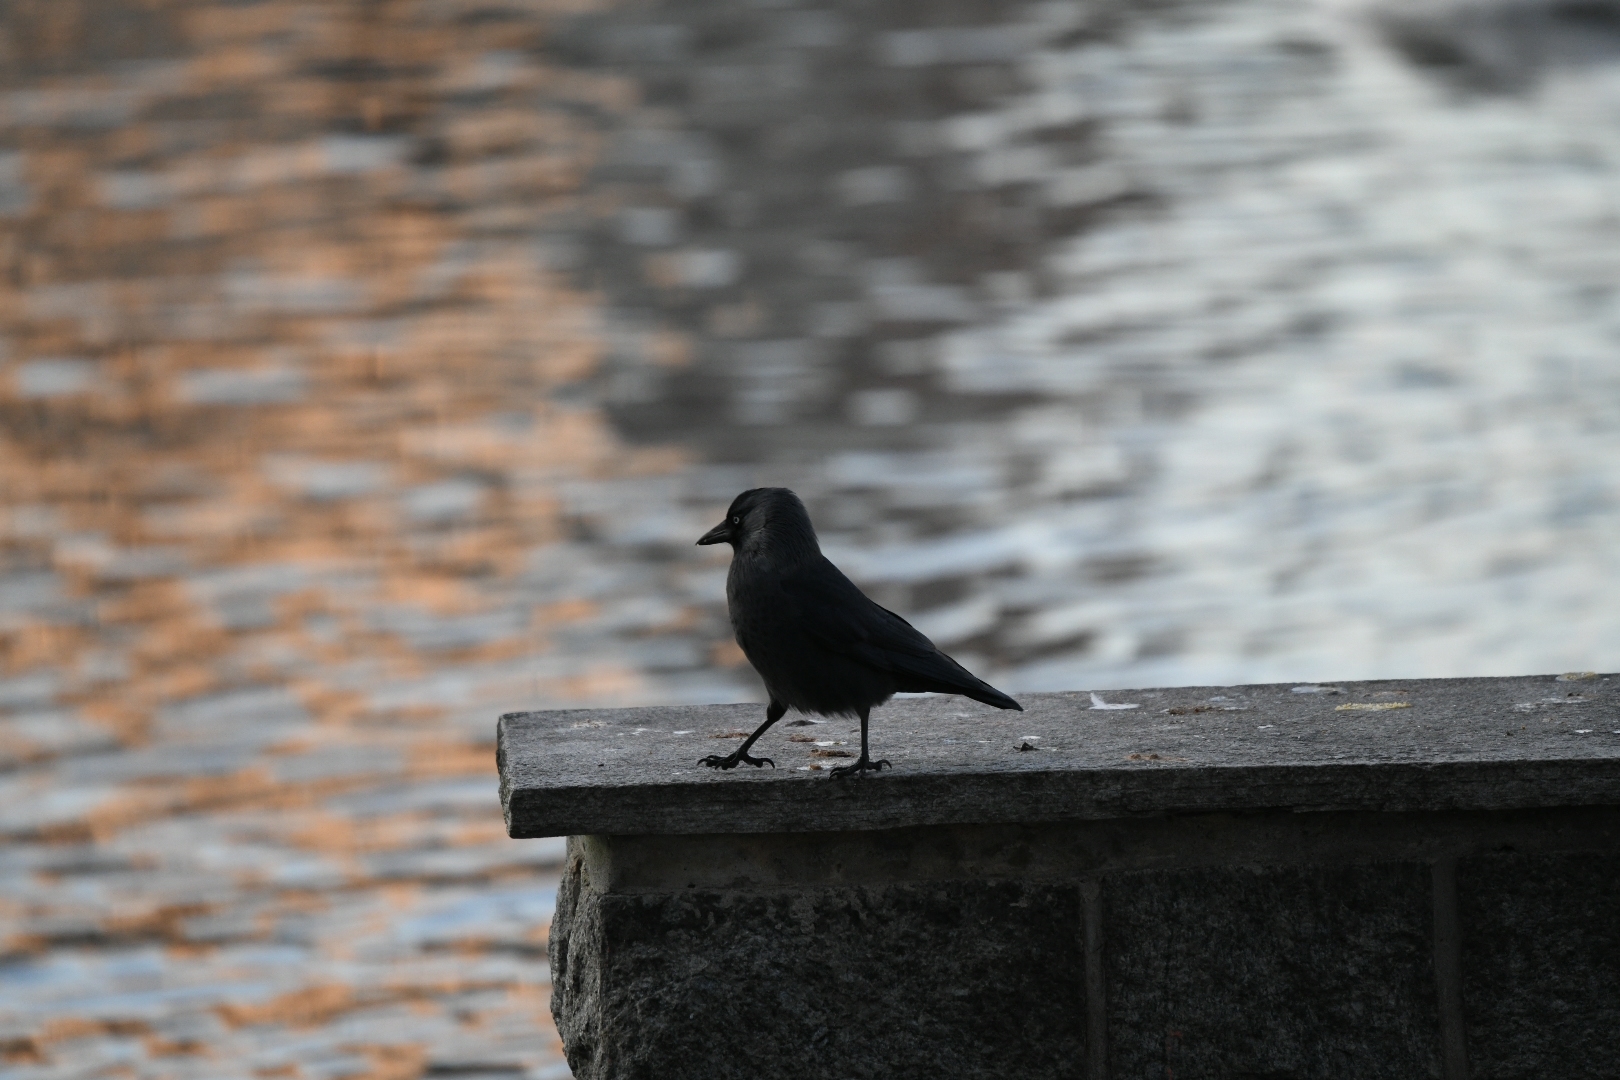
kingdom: Animalia
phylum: Chordata
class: Aves
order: Passeriformes
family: Corvidae
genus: Coloeus
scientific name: Coloeus monedula
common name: Western jackdaw
